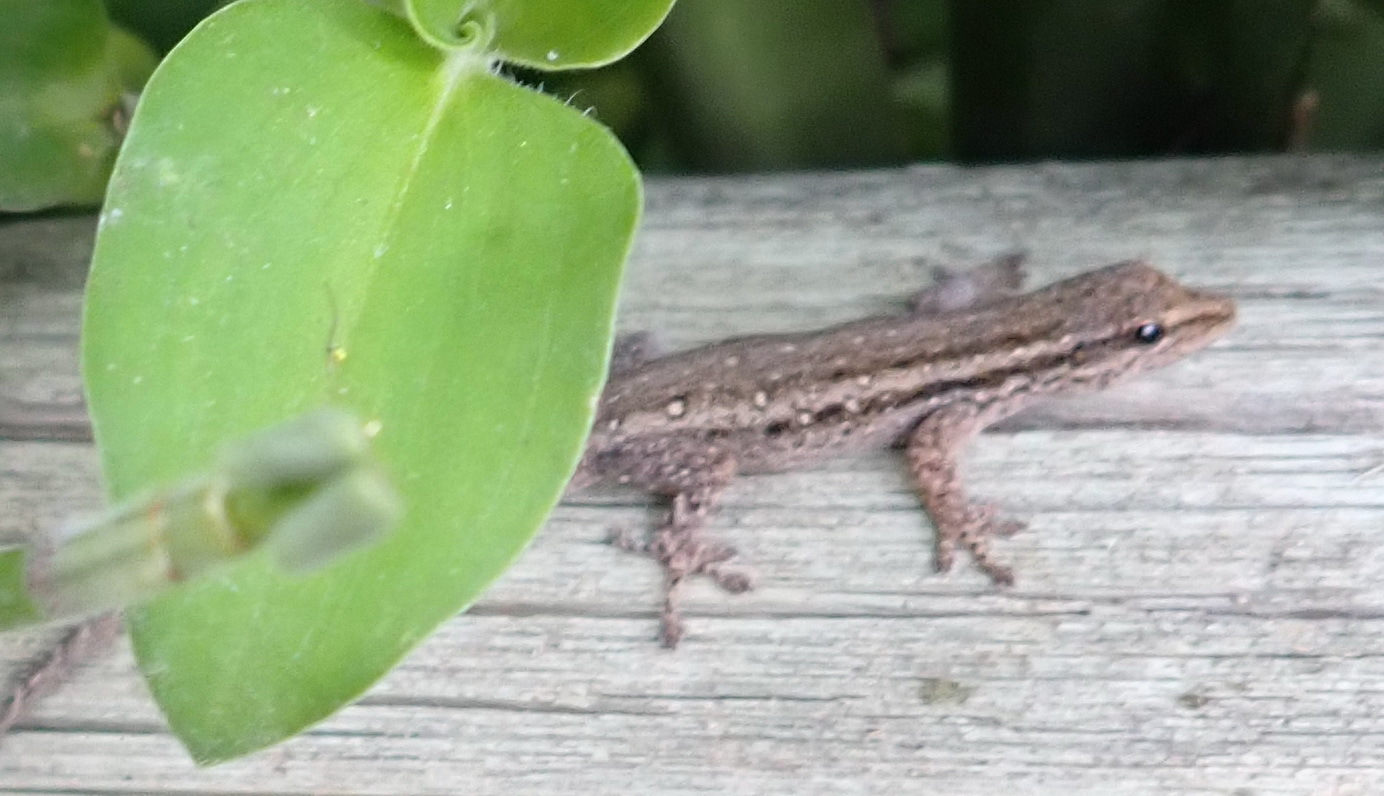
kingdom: Animalia
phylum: Chordata
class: Squamata
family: Gekkonidae
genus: Lygodactylus
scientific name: Lygodactylus capensis
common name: Cape dwarf gecko
